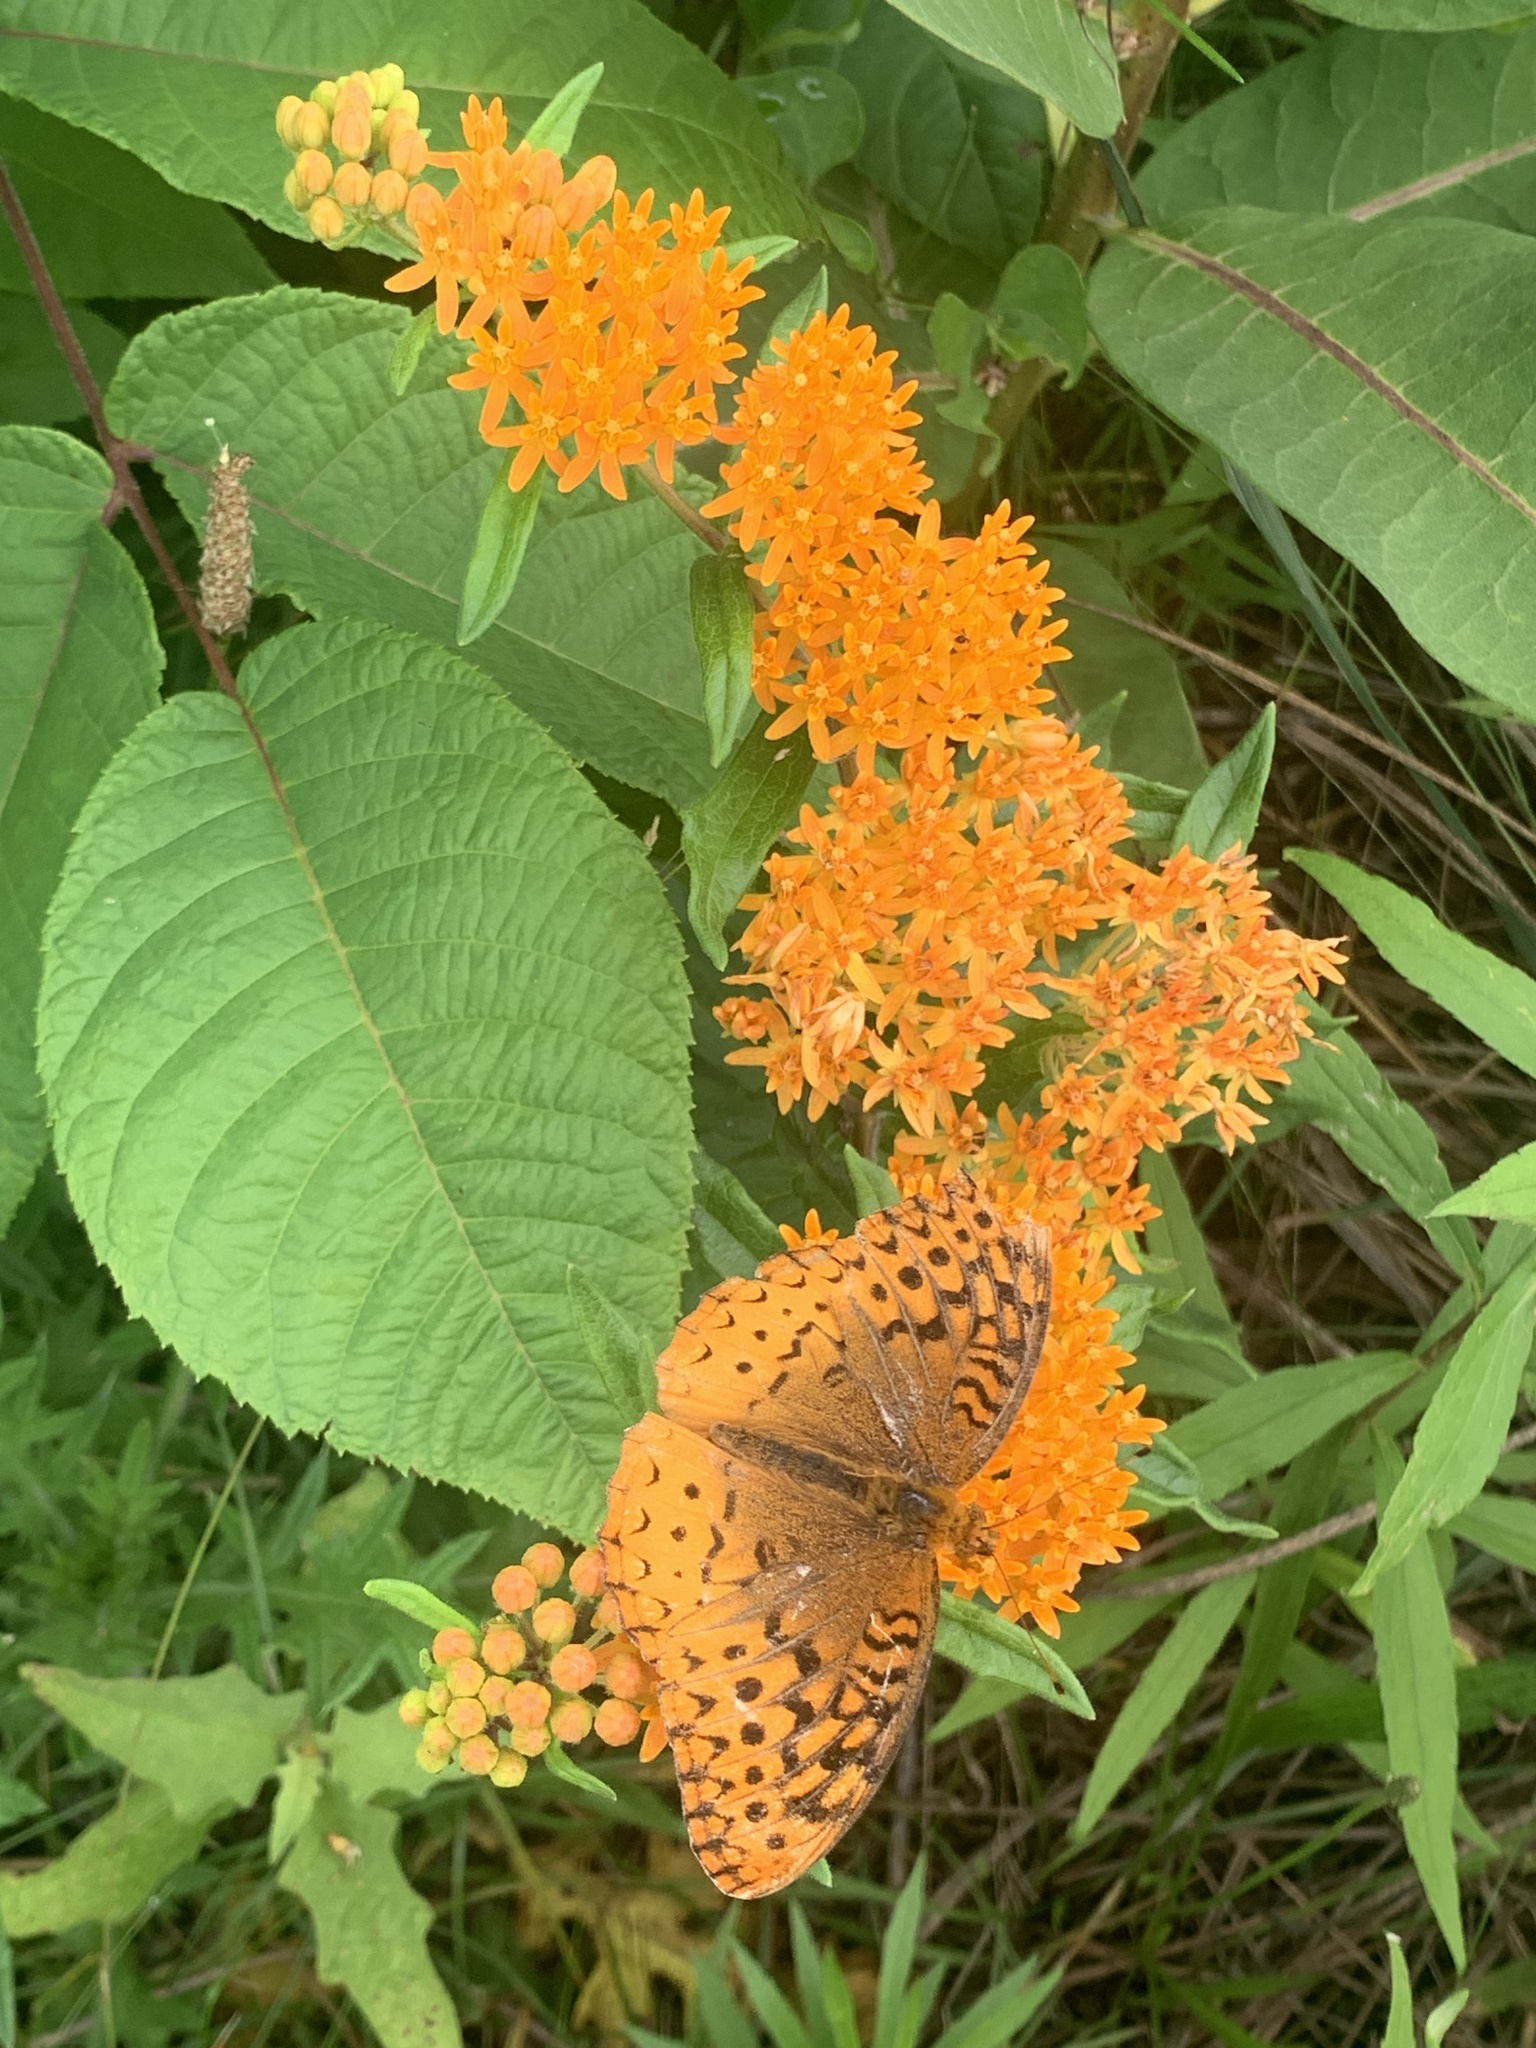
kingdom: Animalia
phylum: Arthropoda
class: Insecta
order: Lepidoptera
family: Nymphalidae
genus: Speyeria
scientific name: Speyeria cybele
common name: Great spangled fritillary
